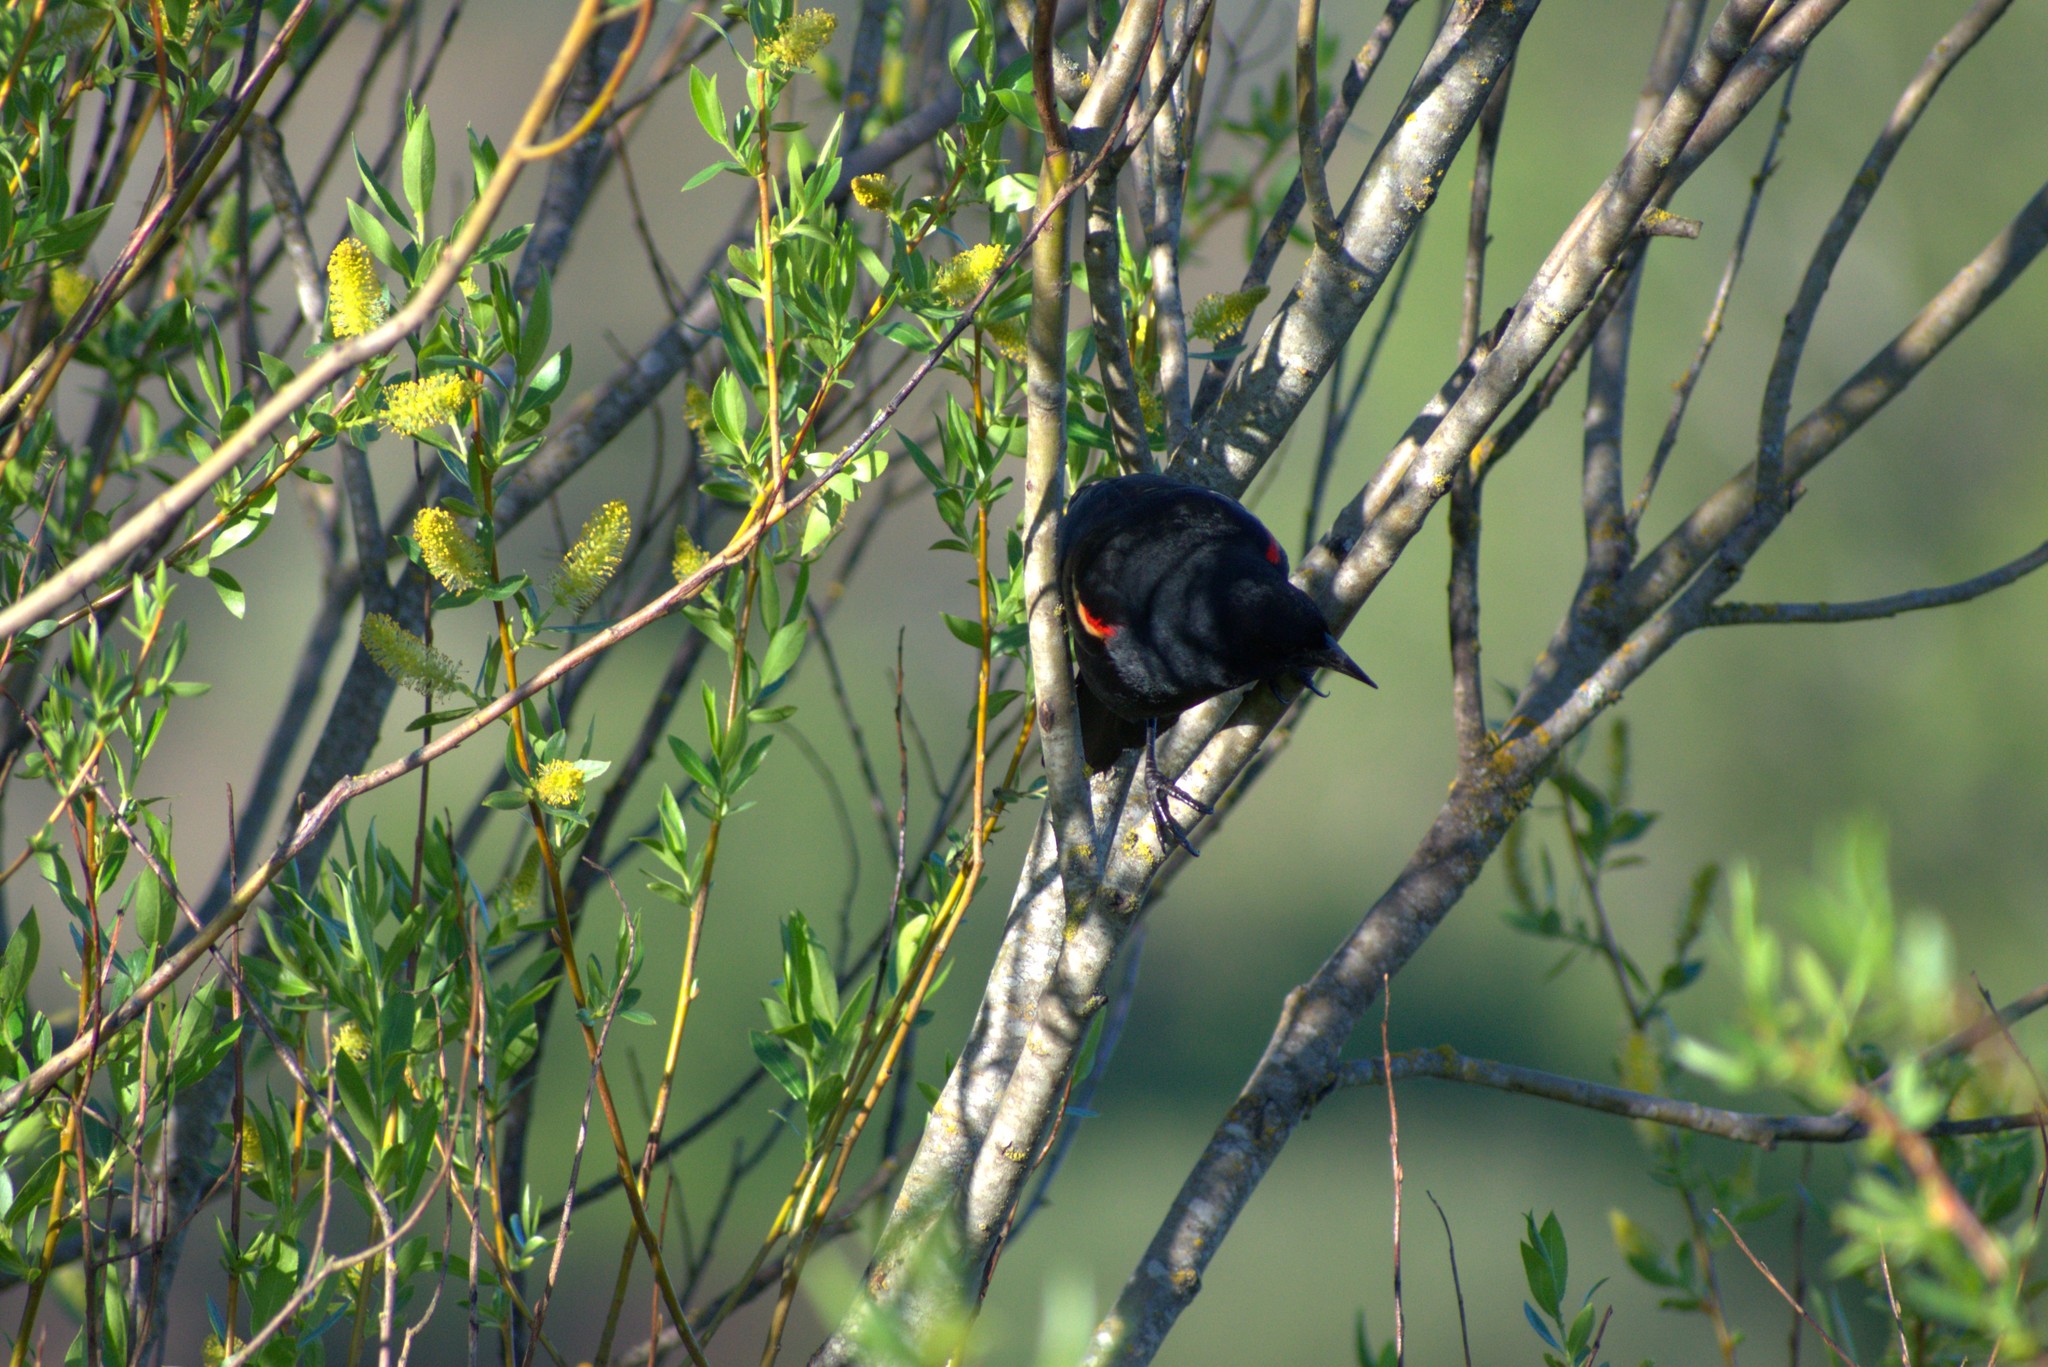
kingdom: Animalia
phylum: Chordata
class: Aves
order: Passeriformes
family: Icteridae
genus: Agelaius
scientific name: Agelaius phoeniceus
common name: Red-winged blackbird
